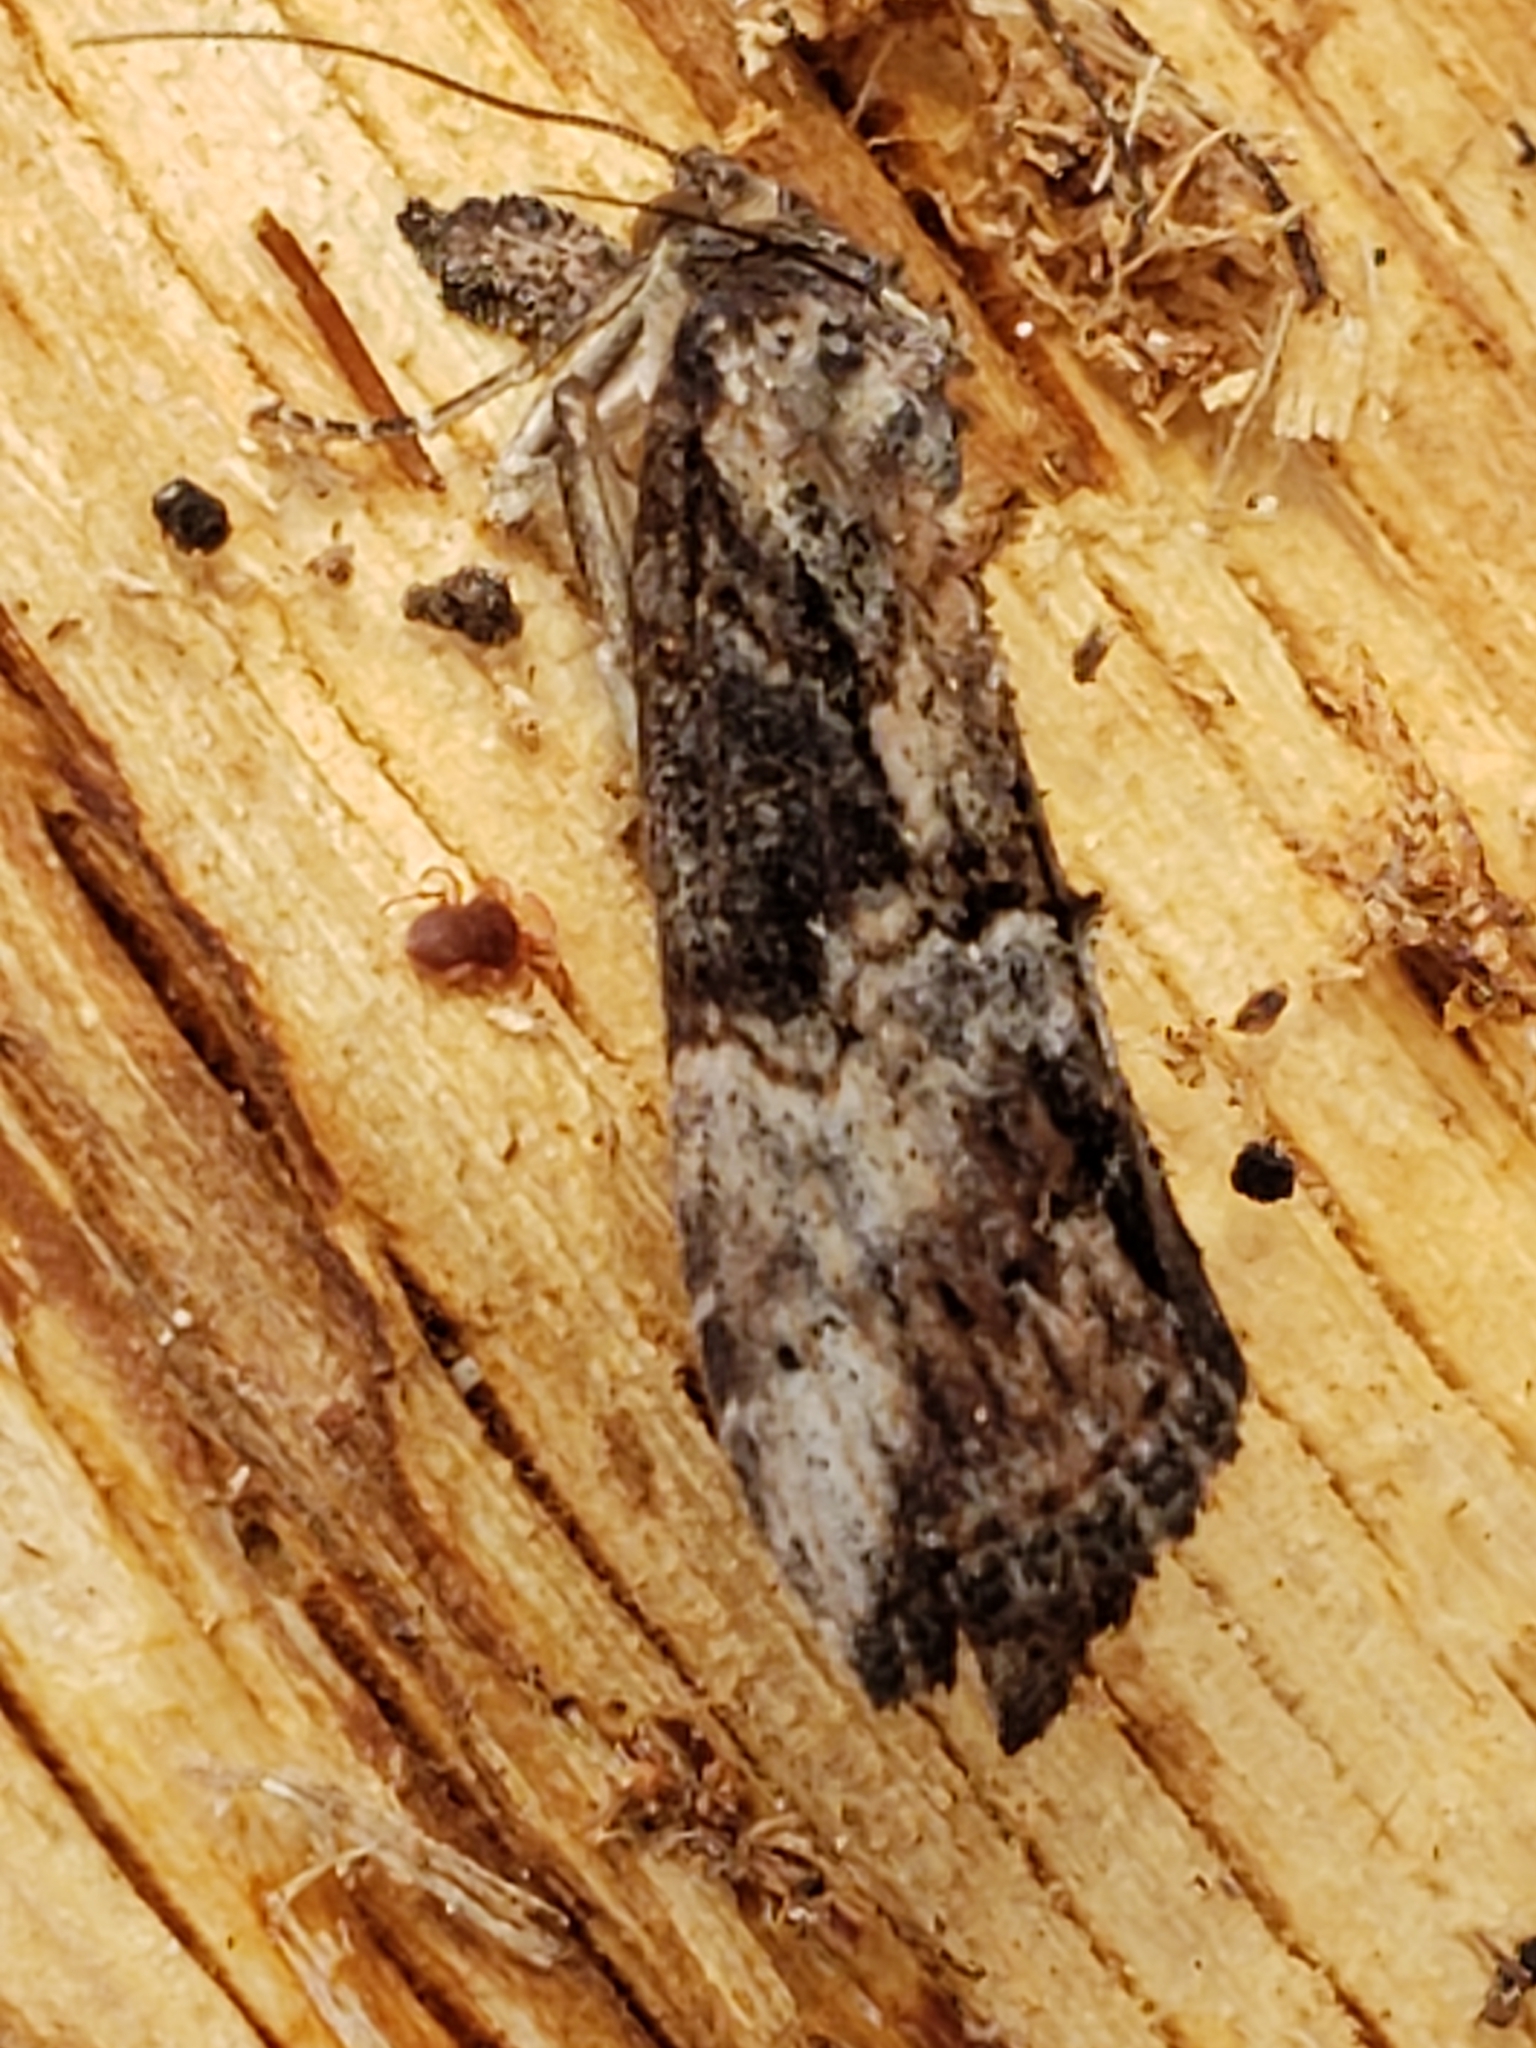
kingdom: Animalia
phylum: Arthropoda
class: Insecta
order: Lepidoptera
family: Erebidae
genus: Hypena
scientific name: Hypena scabra
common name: Green cloverworm
